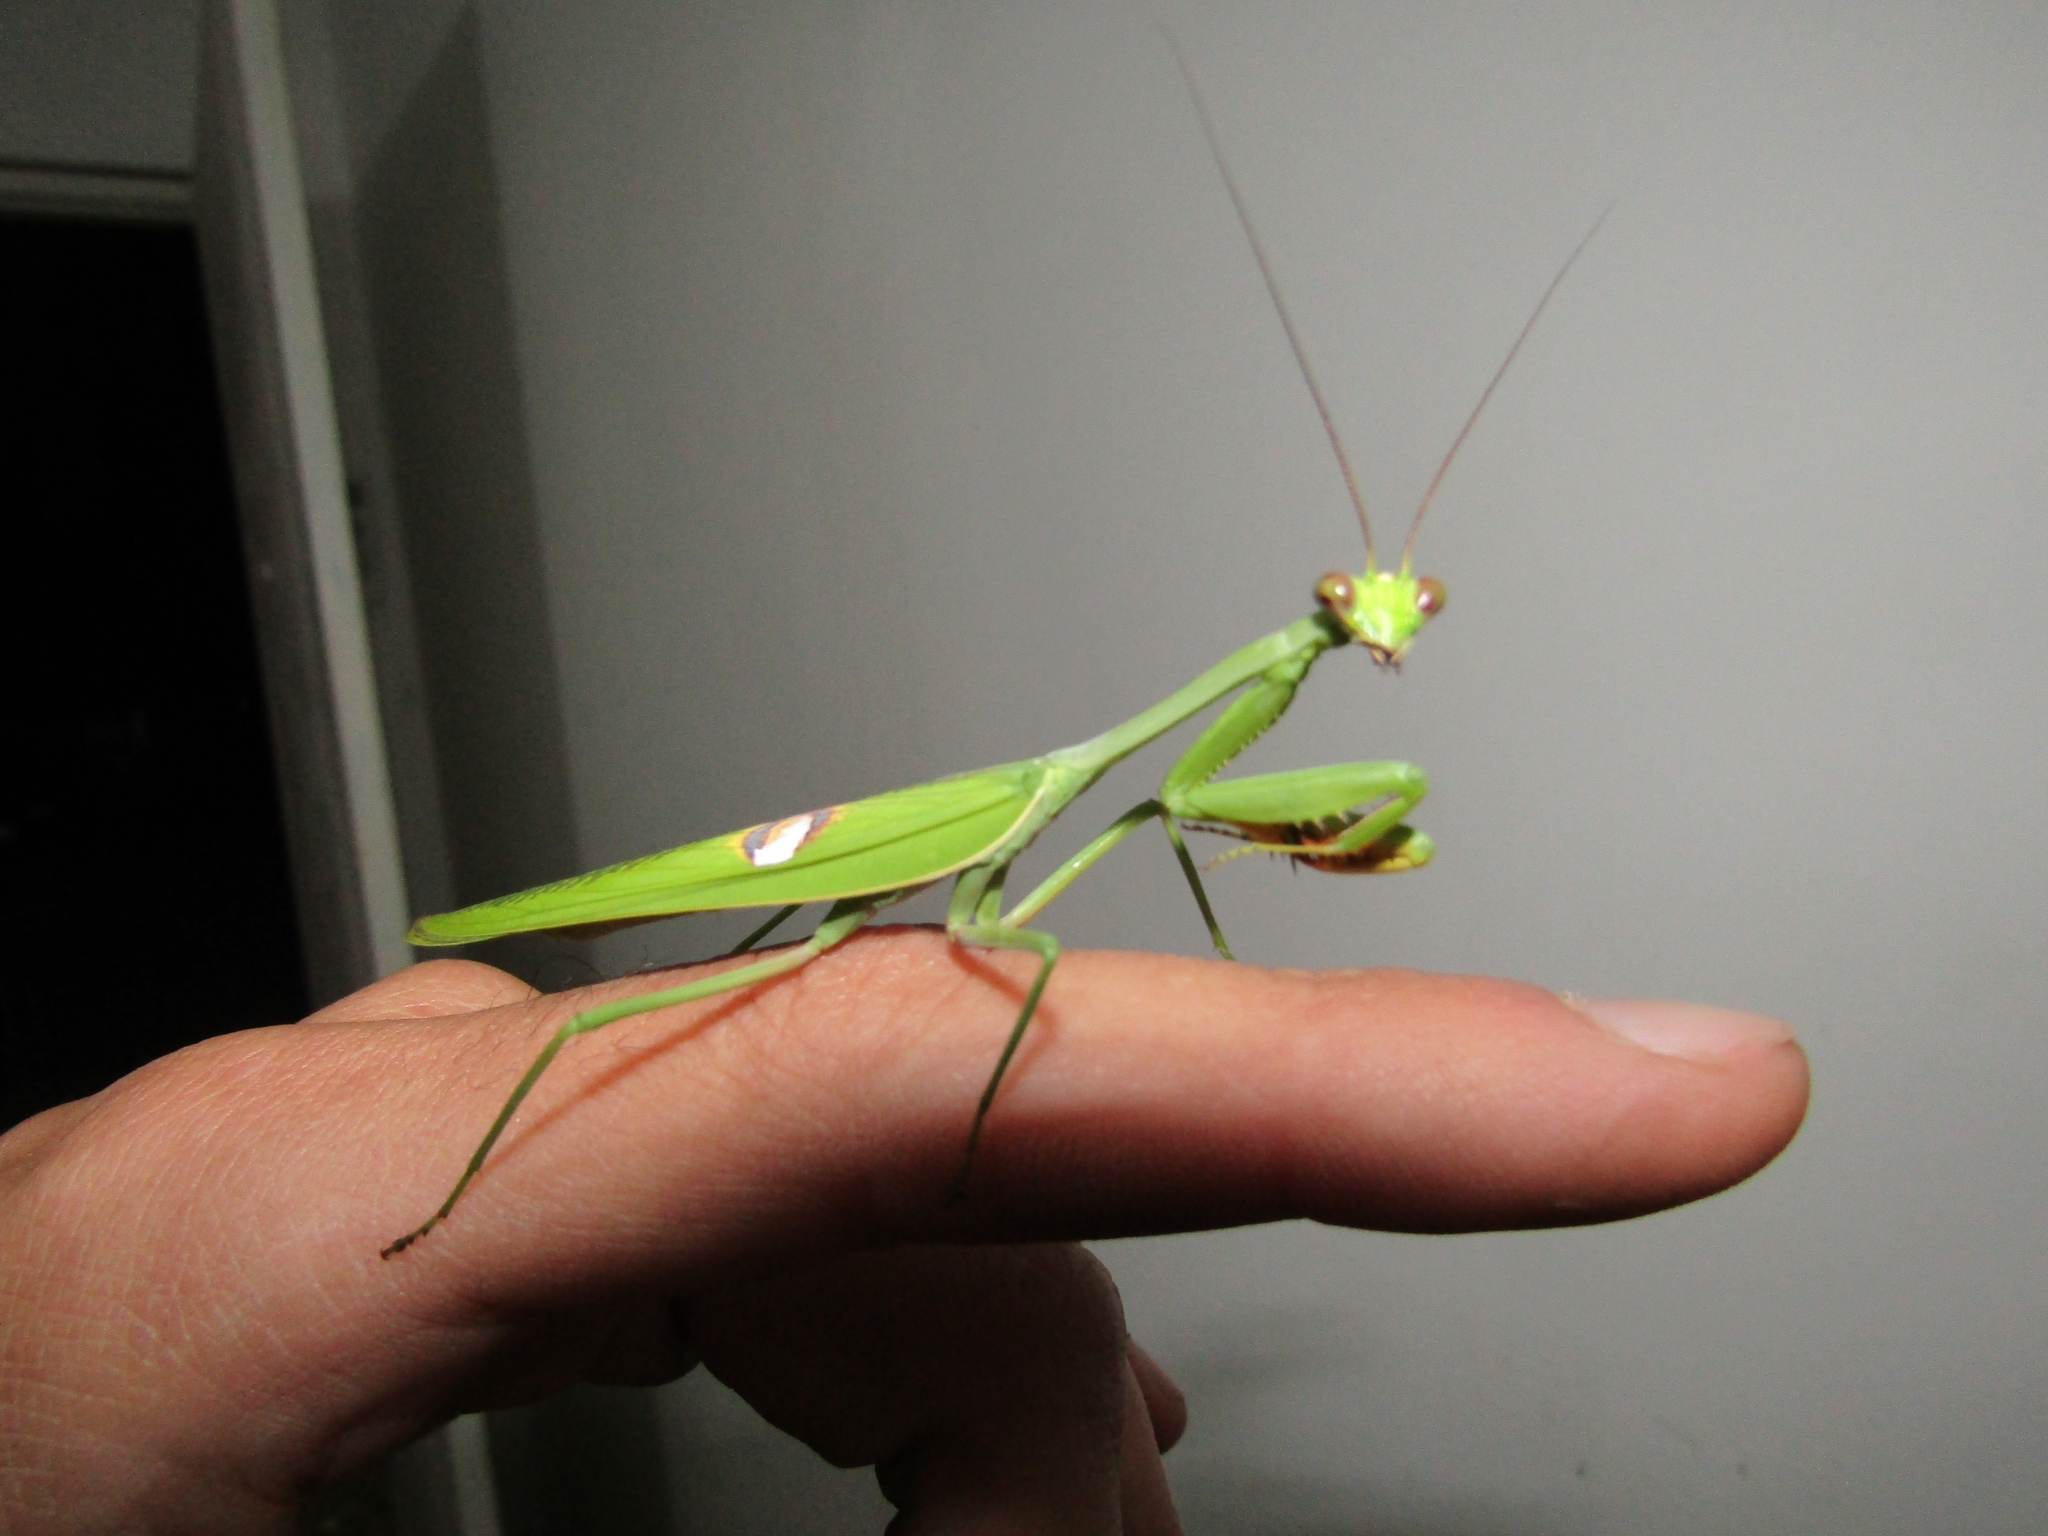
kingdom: Animalia
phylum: Arthropoda
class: Insecta
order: Mantodea
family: Mantidae
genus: Stagmatoptera
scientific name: Stagmatoptera hyaloptera
